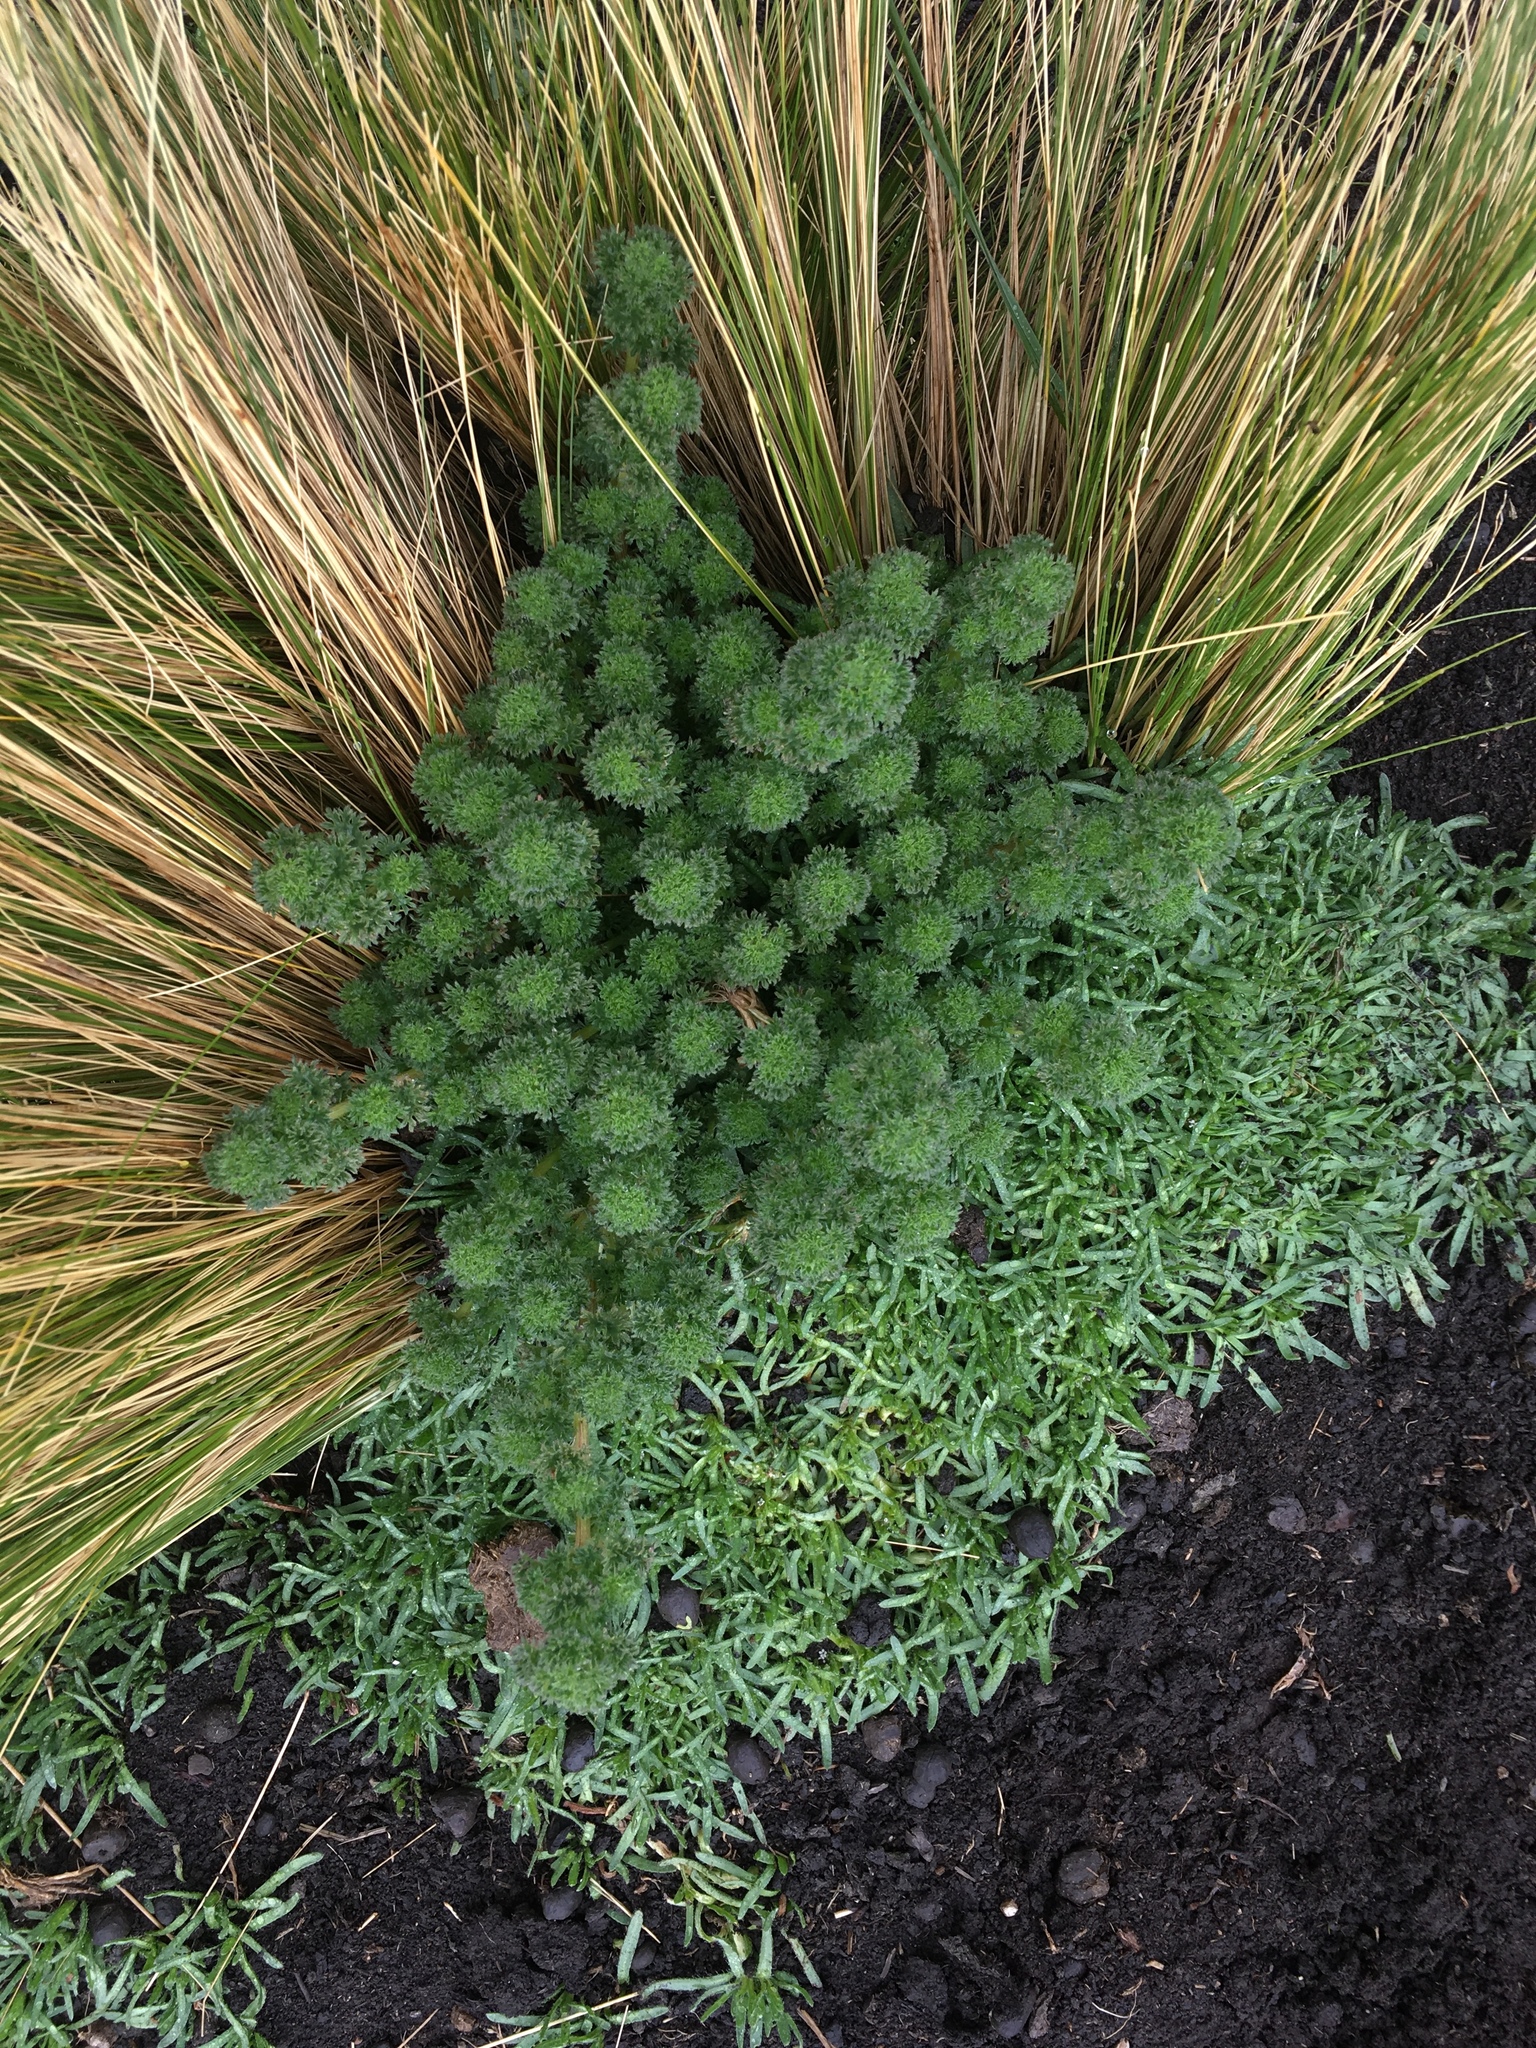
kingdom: Plantae
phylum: Tracheophyta
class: Magnoliopsida
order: Rosales
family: Urticaceae
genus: Urtica
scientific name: Urtica flabellata
